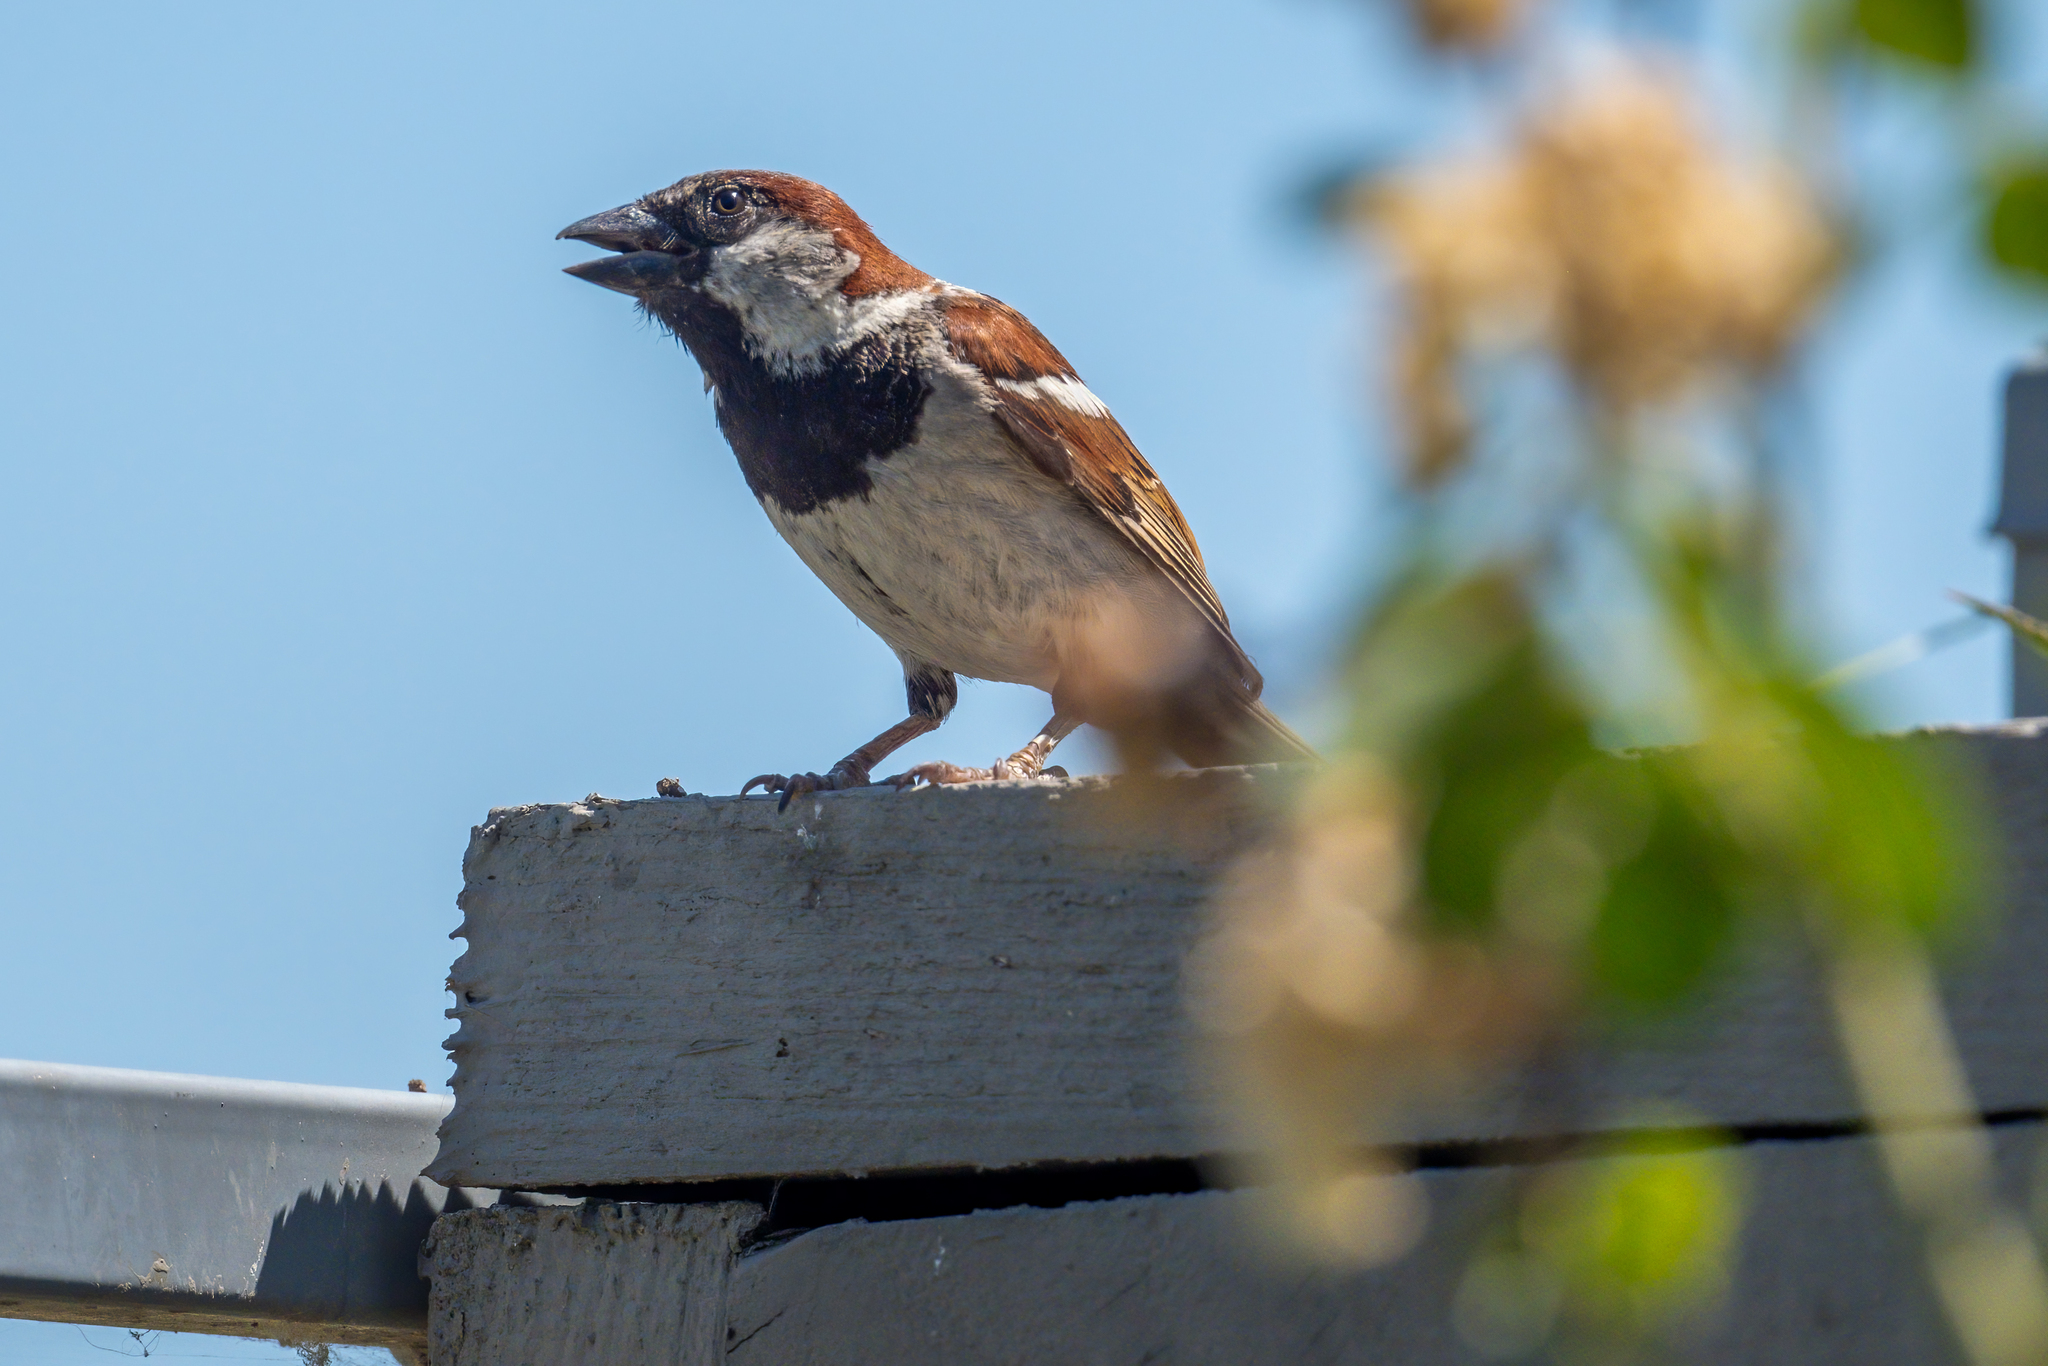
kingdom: Animalia
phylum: Chordata
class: Aves
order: Passeriformes
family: Passeridae
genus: Passer
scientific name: Passer domesticus
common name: House sparrow
